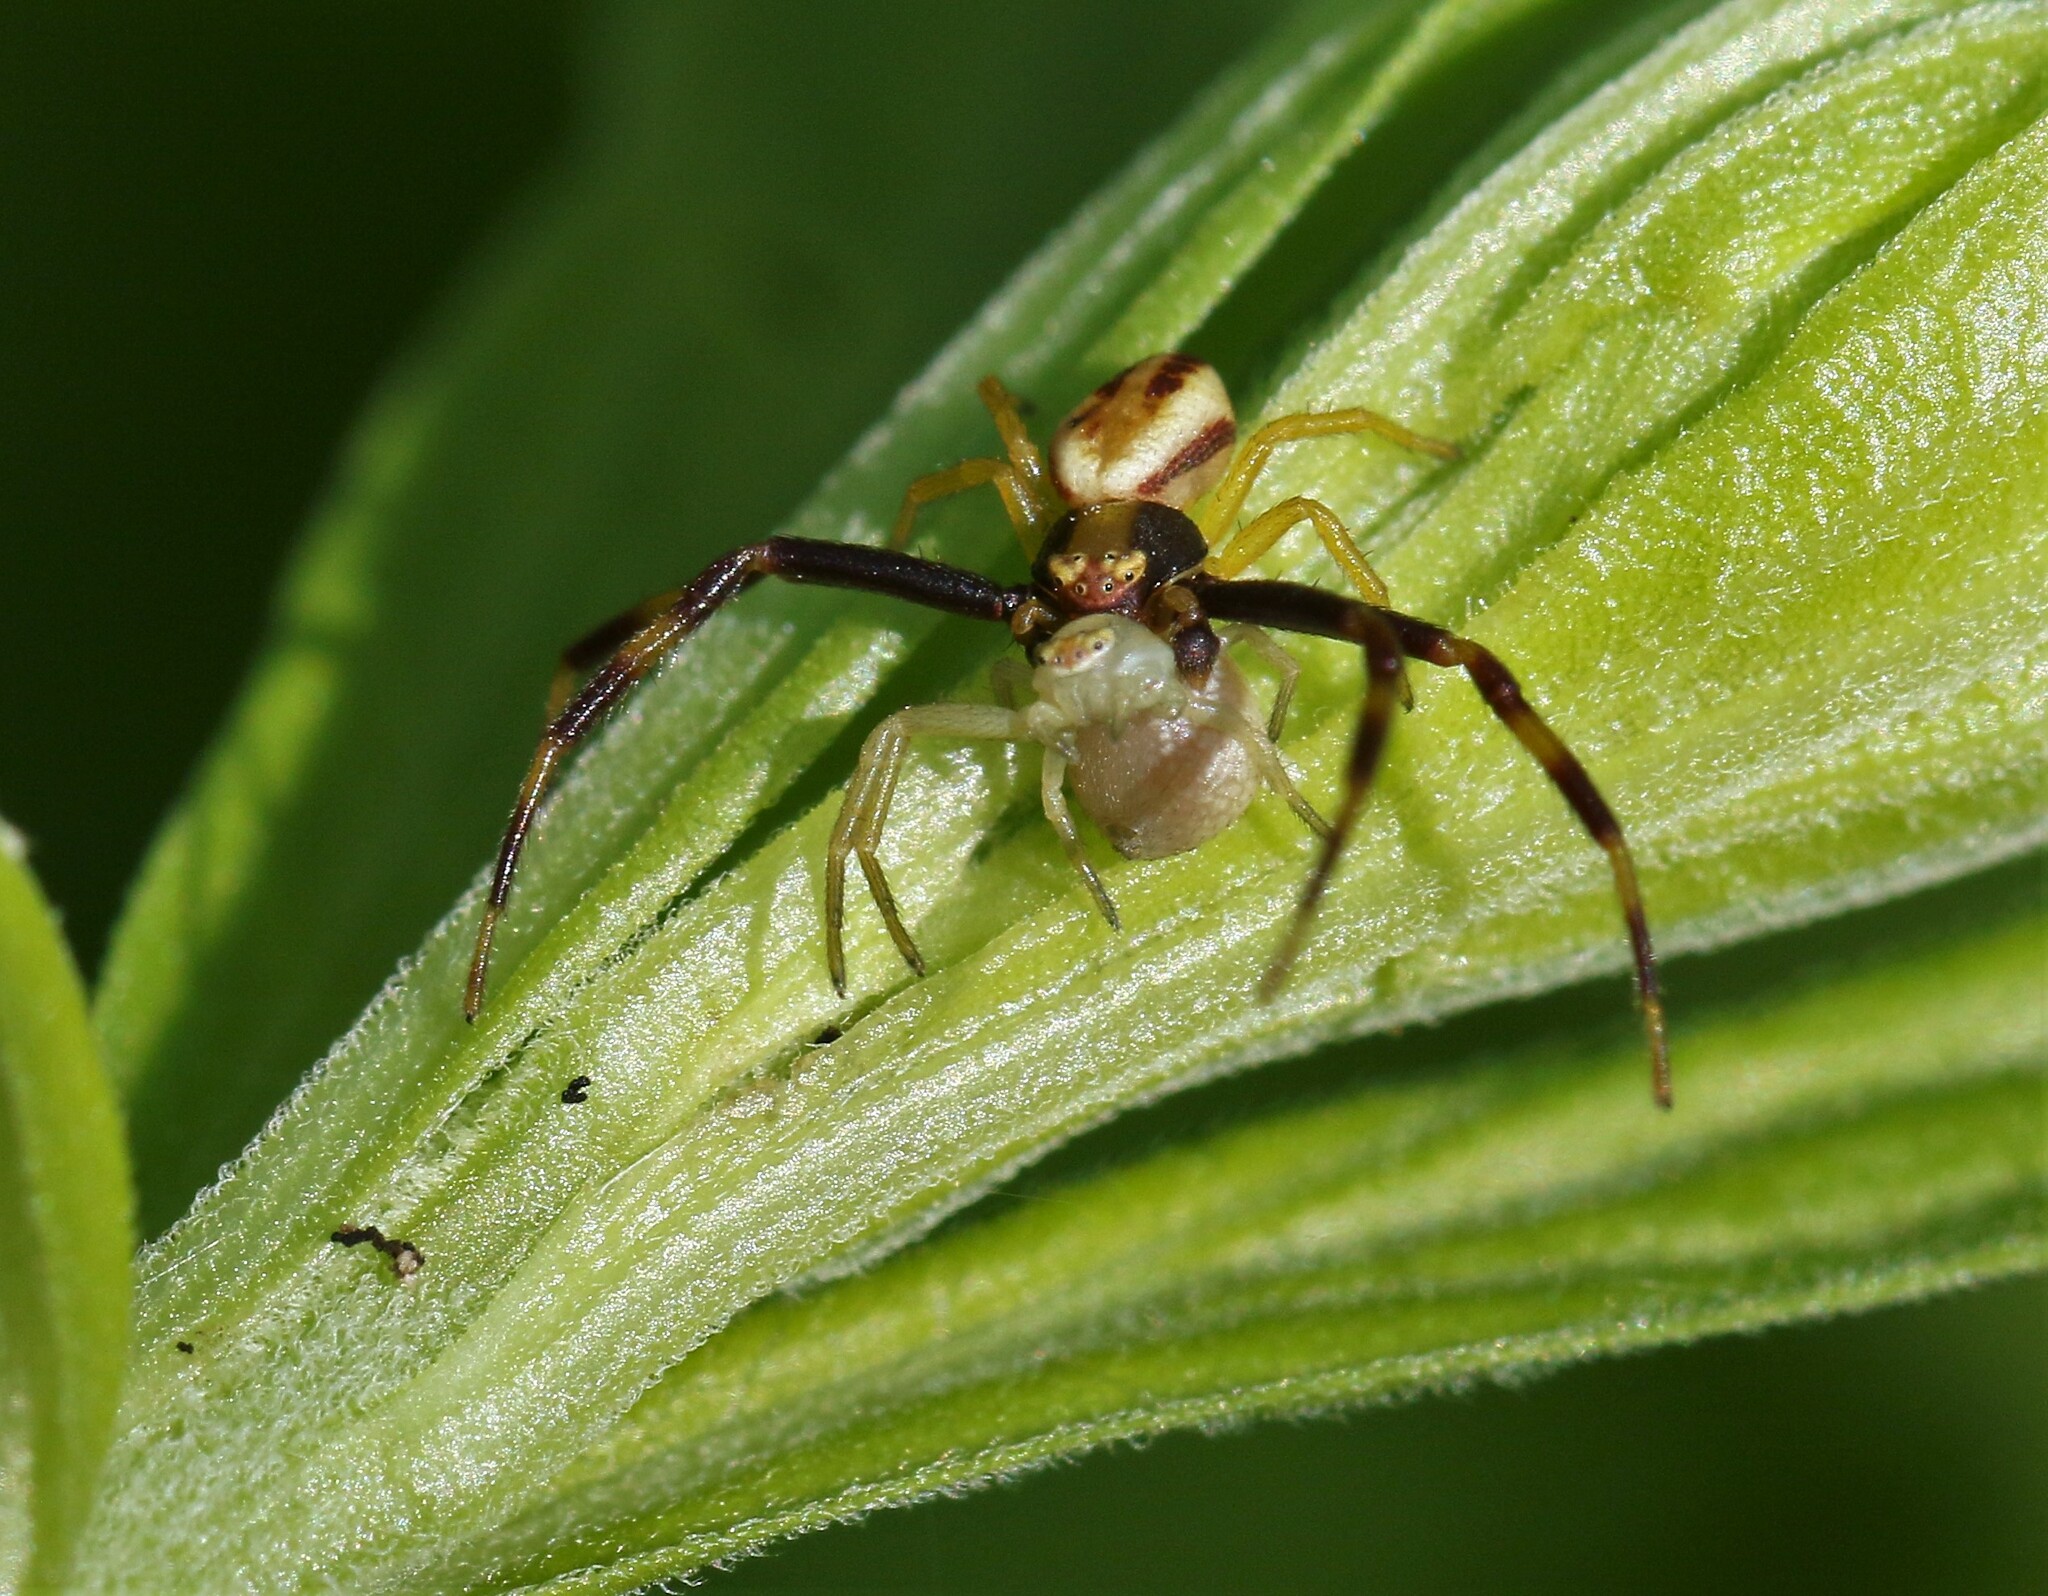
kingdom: Animalia
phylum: Arthropoda
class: Arachnida
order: Araneae
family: Thomisidae
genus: Misumena
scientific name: Misumena vatia
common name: Goldenrod crab spider
